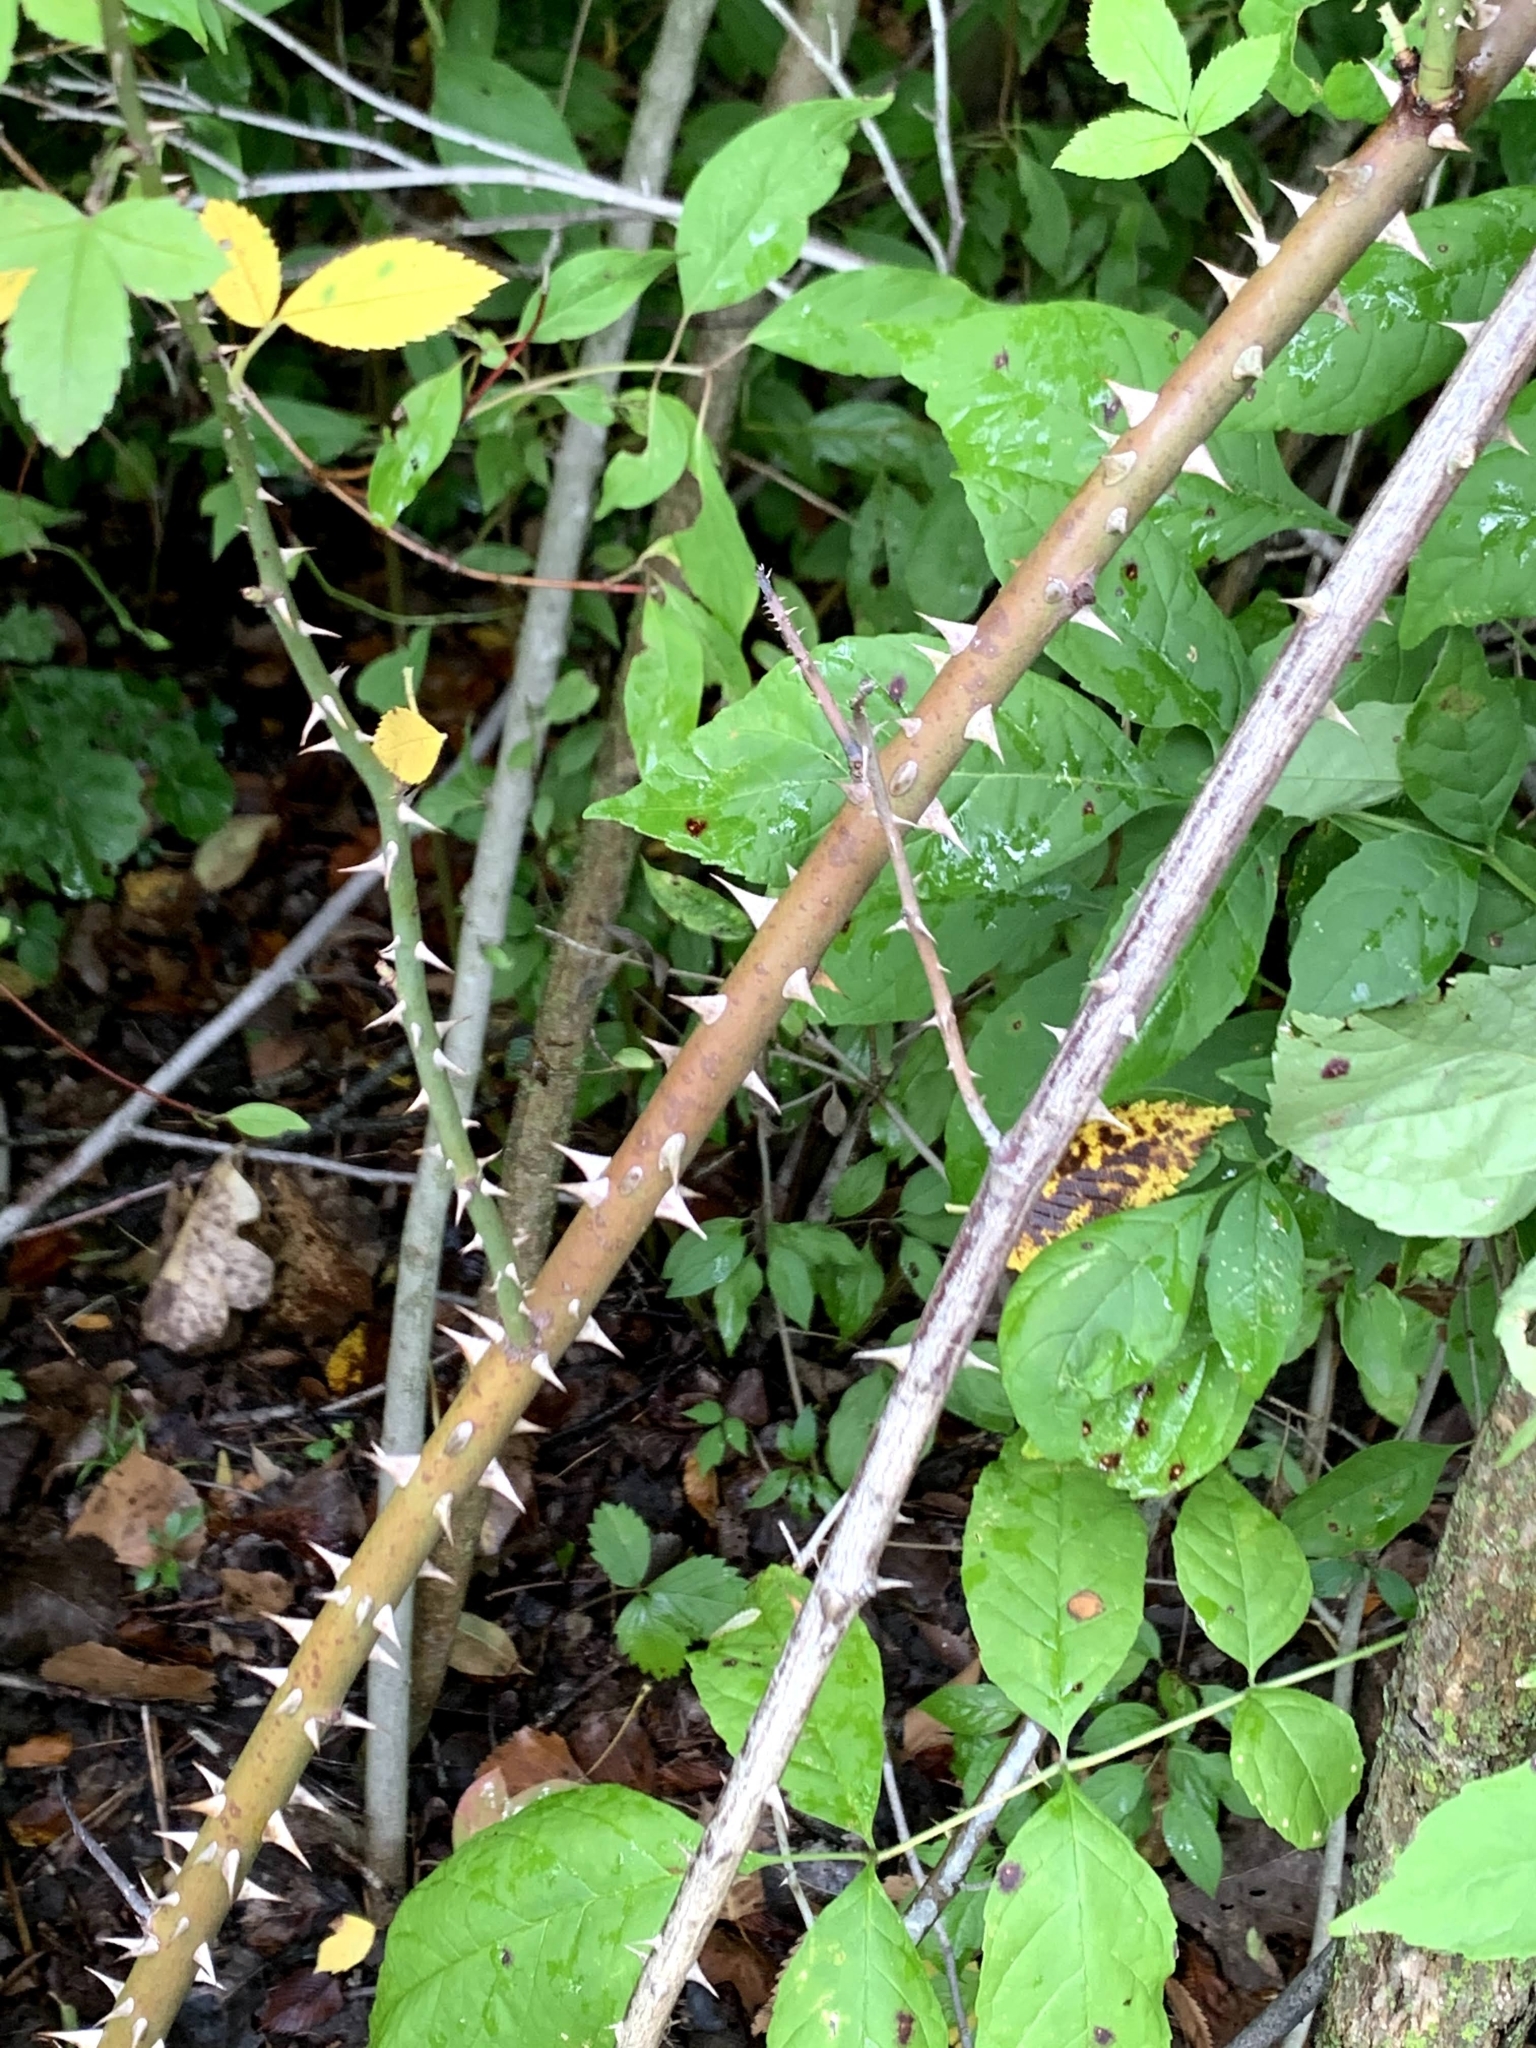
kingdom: Plantae
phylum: Tracheophyta
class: Magnoliopsida
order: Rosales
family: Rosaceae
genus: Rosa
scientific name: Rosa multiflora
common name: Multiflora rose
